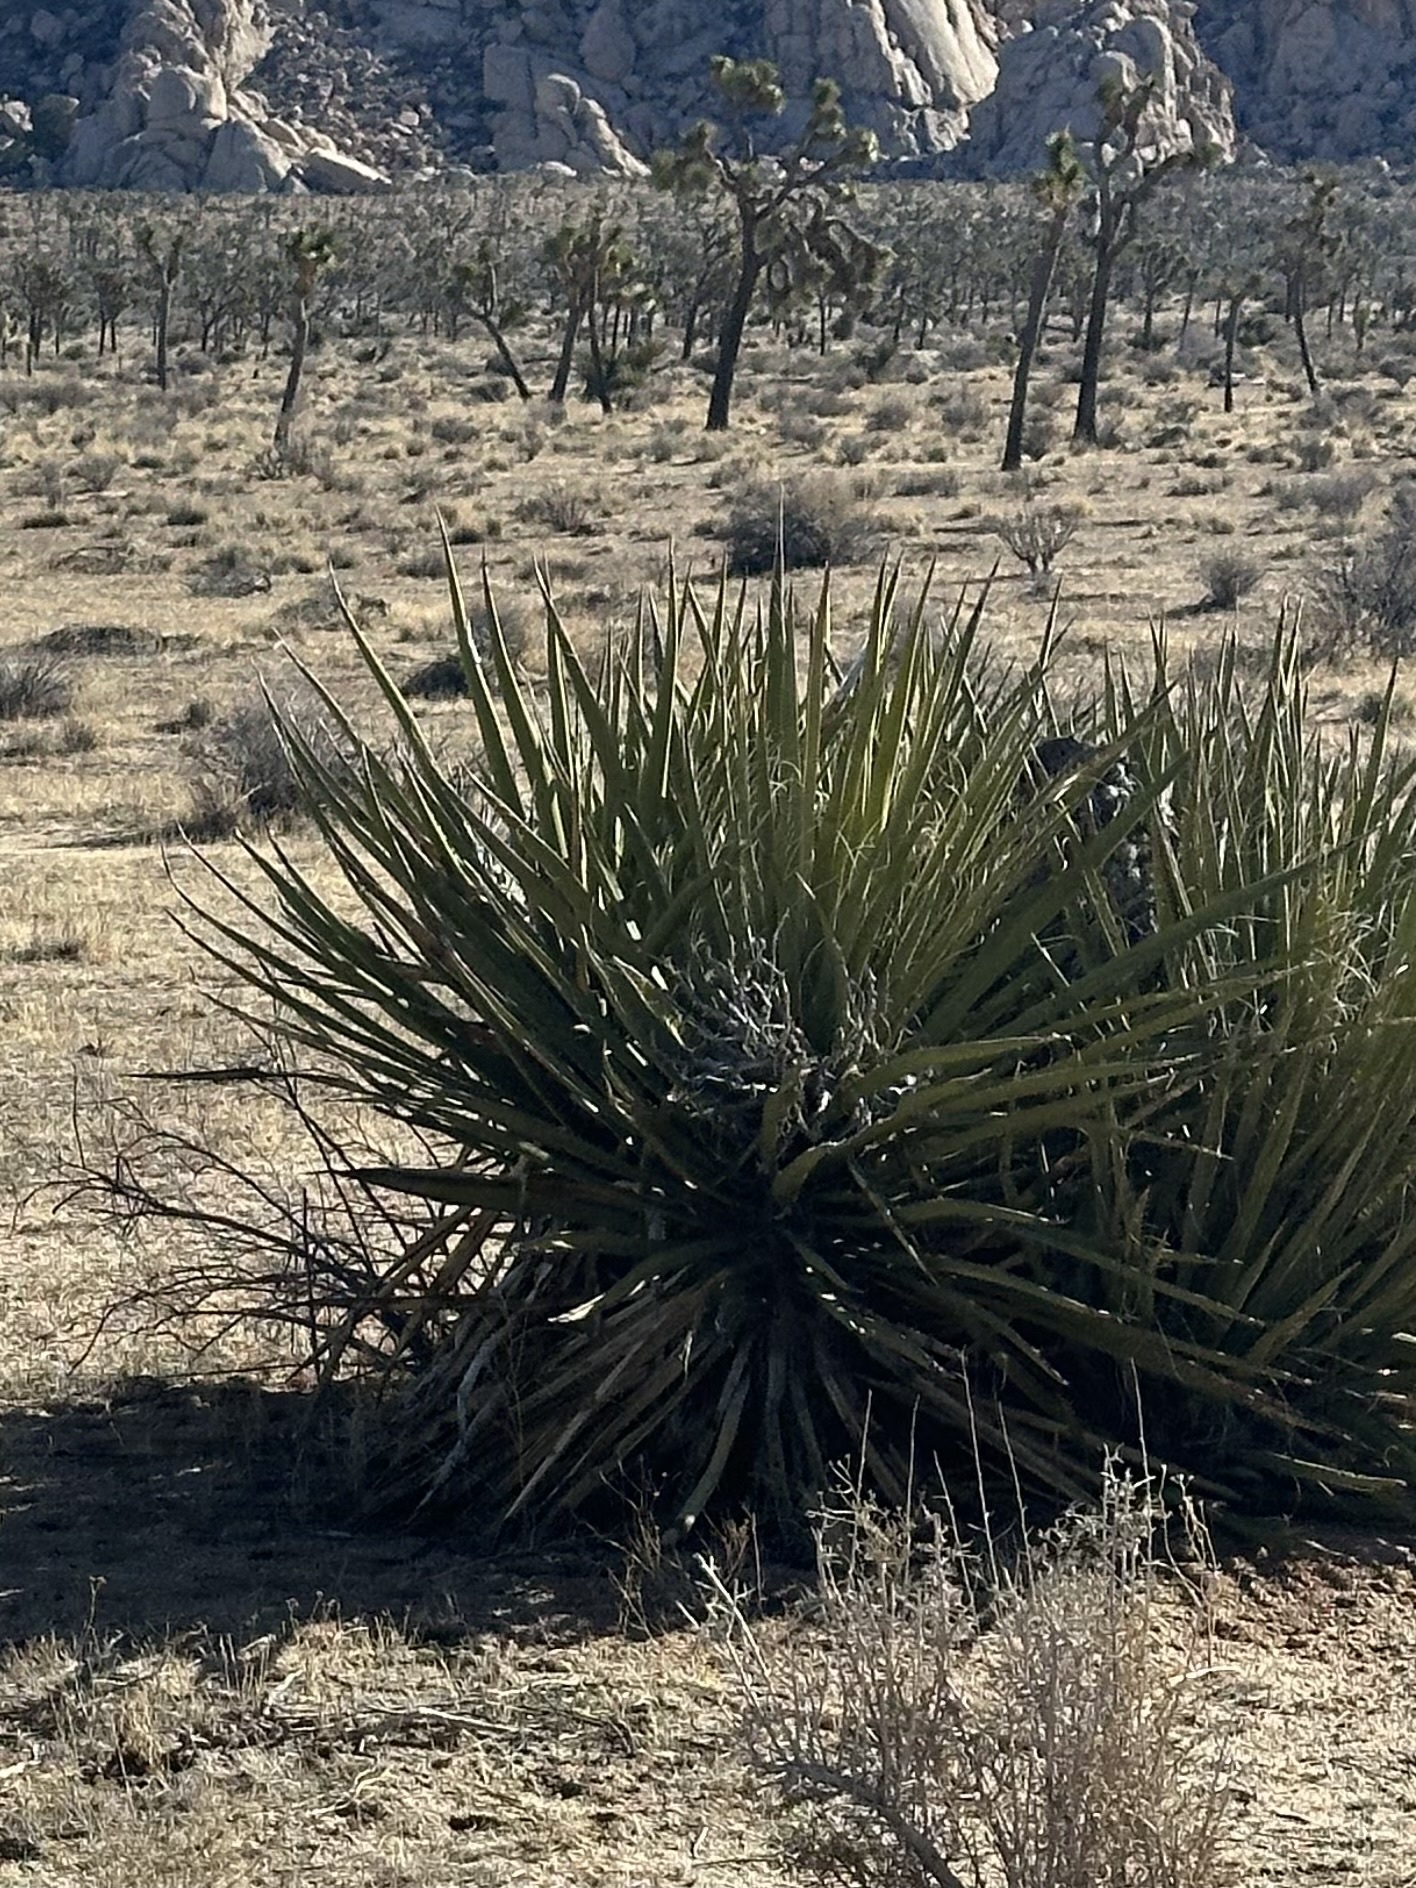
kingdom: Plantae
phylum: Tracheophyta
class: Liliopsida
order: Asparagales
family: Asparagaceae
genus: Yucca
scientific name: Yucca schidigera
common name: Mojave yucca
